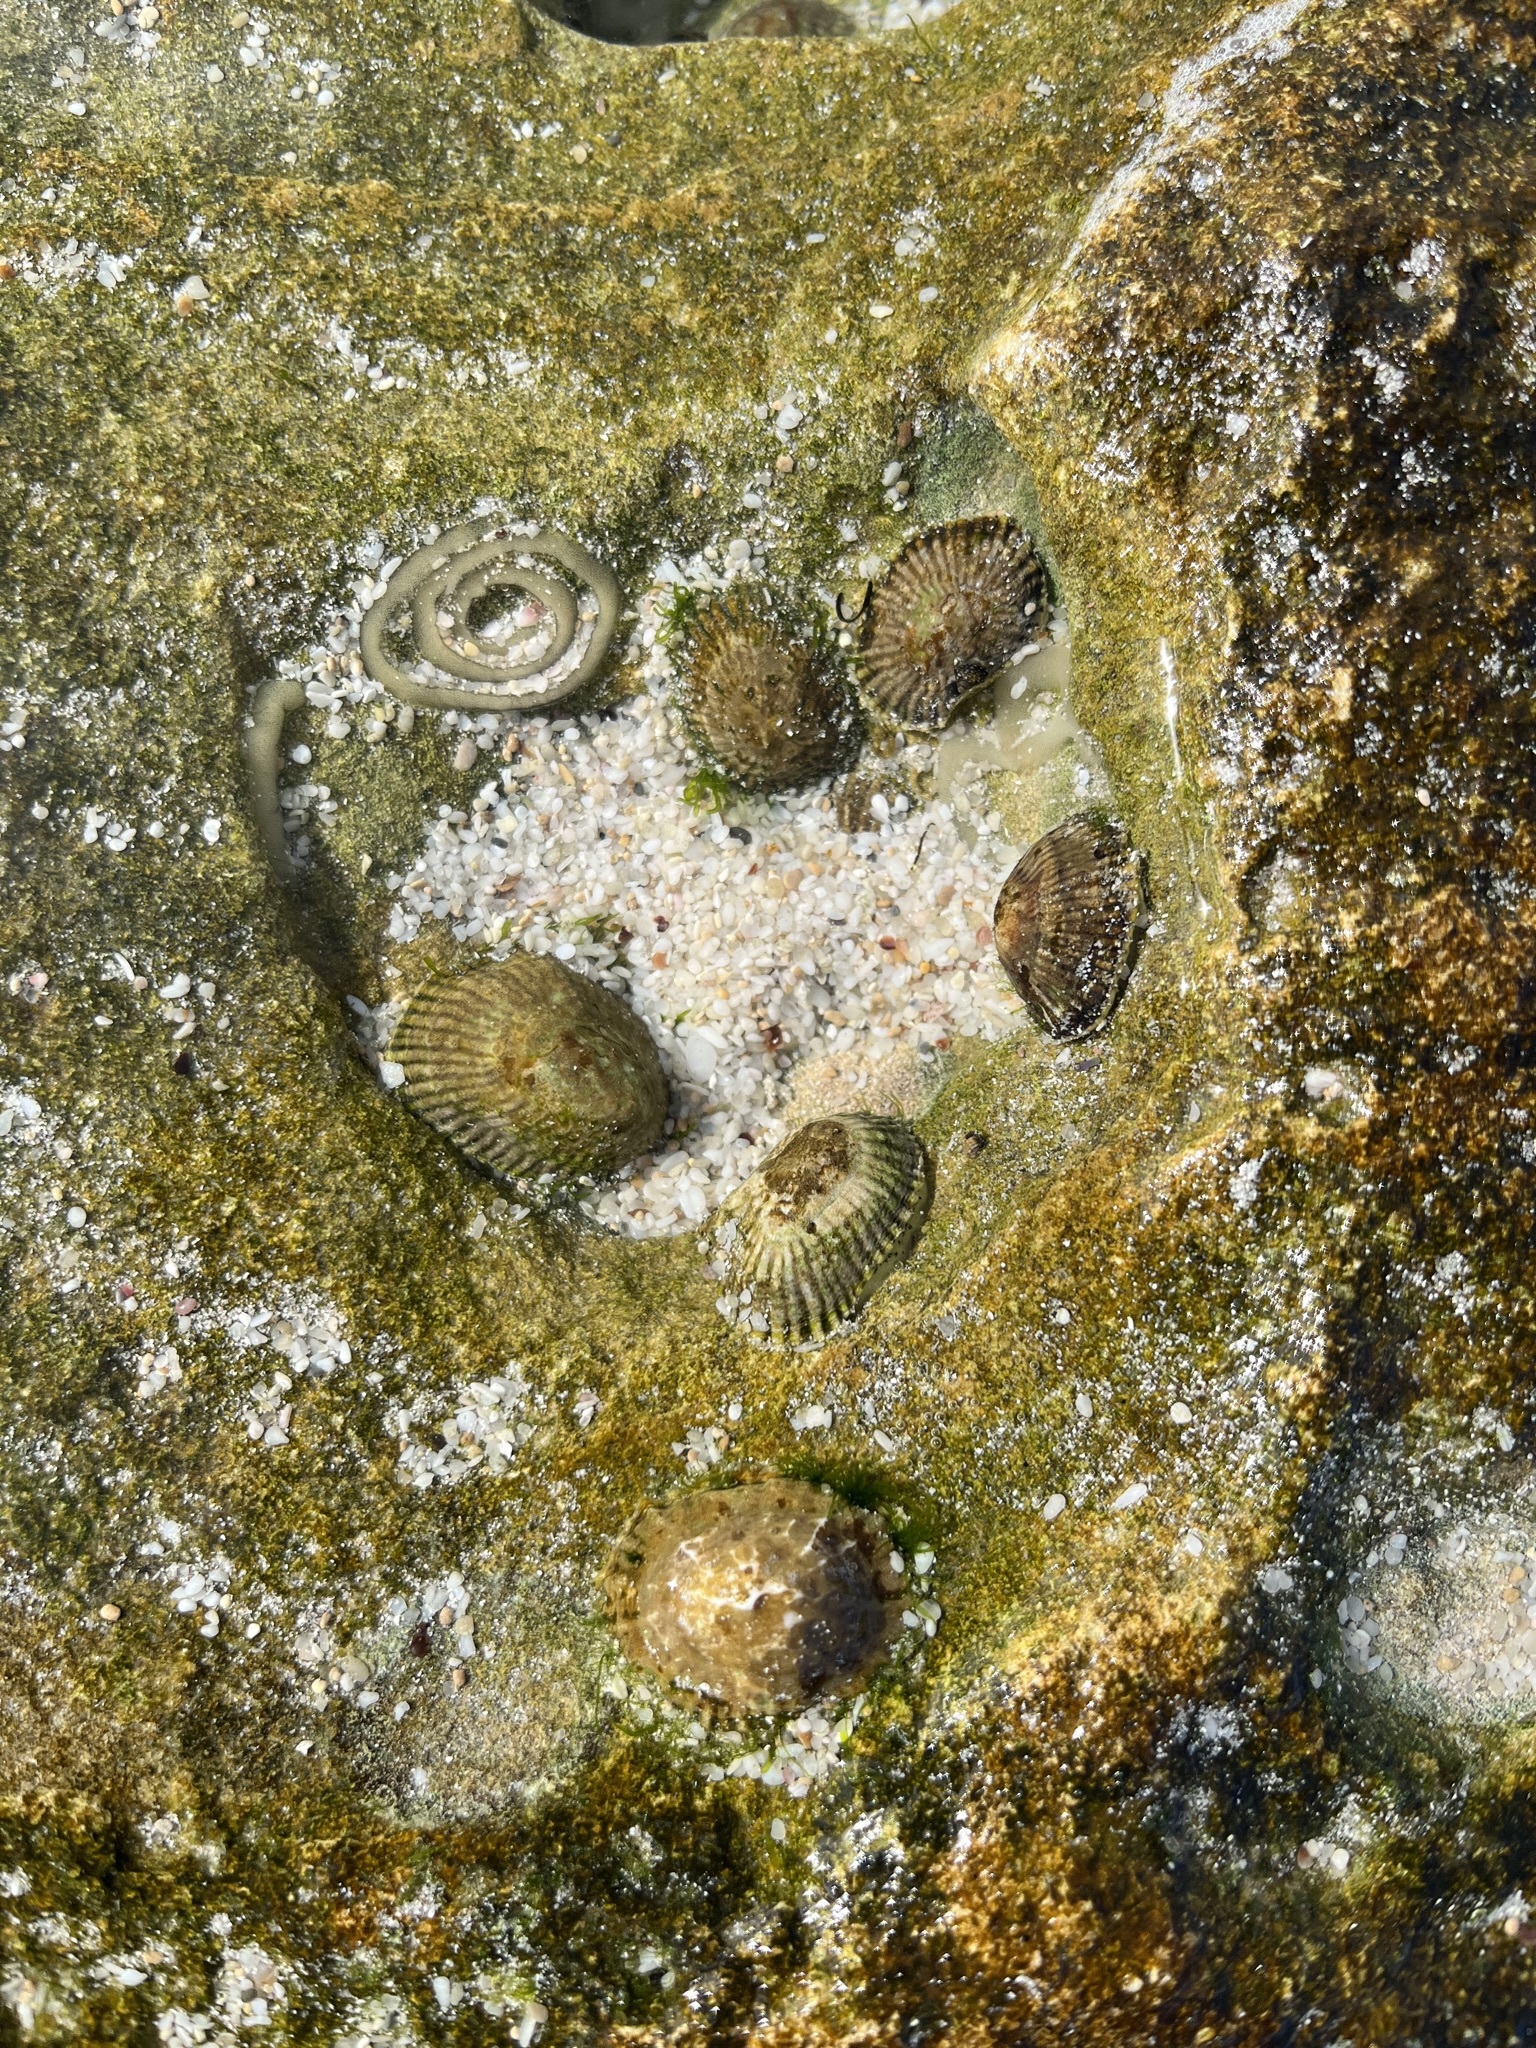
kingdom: Animalia
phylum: Mollusca
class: Gastropoda
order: Siphonariida
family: Siphonariidae
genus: Siphonaria
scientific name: Siphonaria capensis
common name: Cape false limpet
